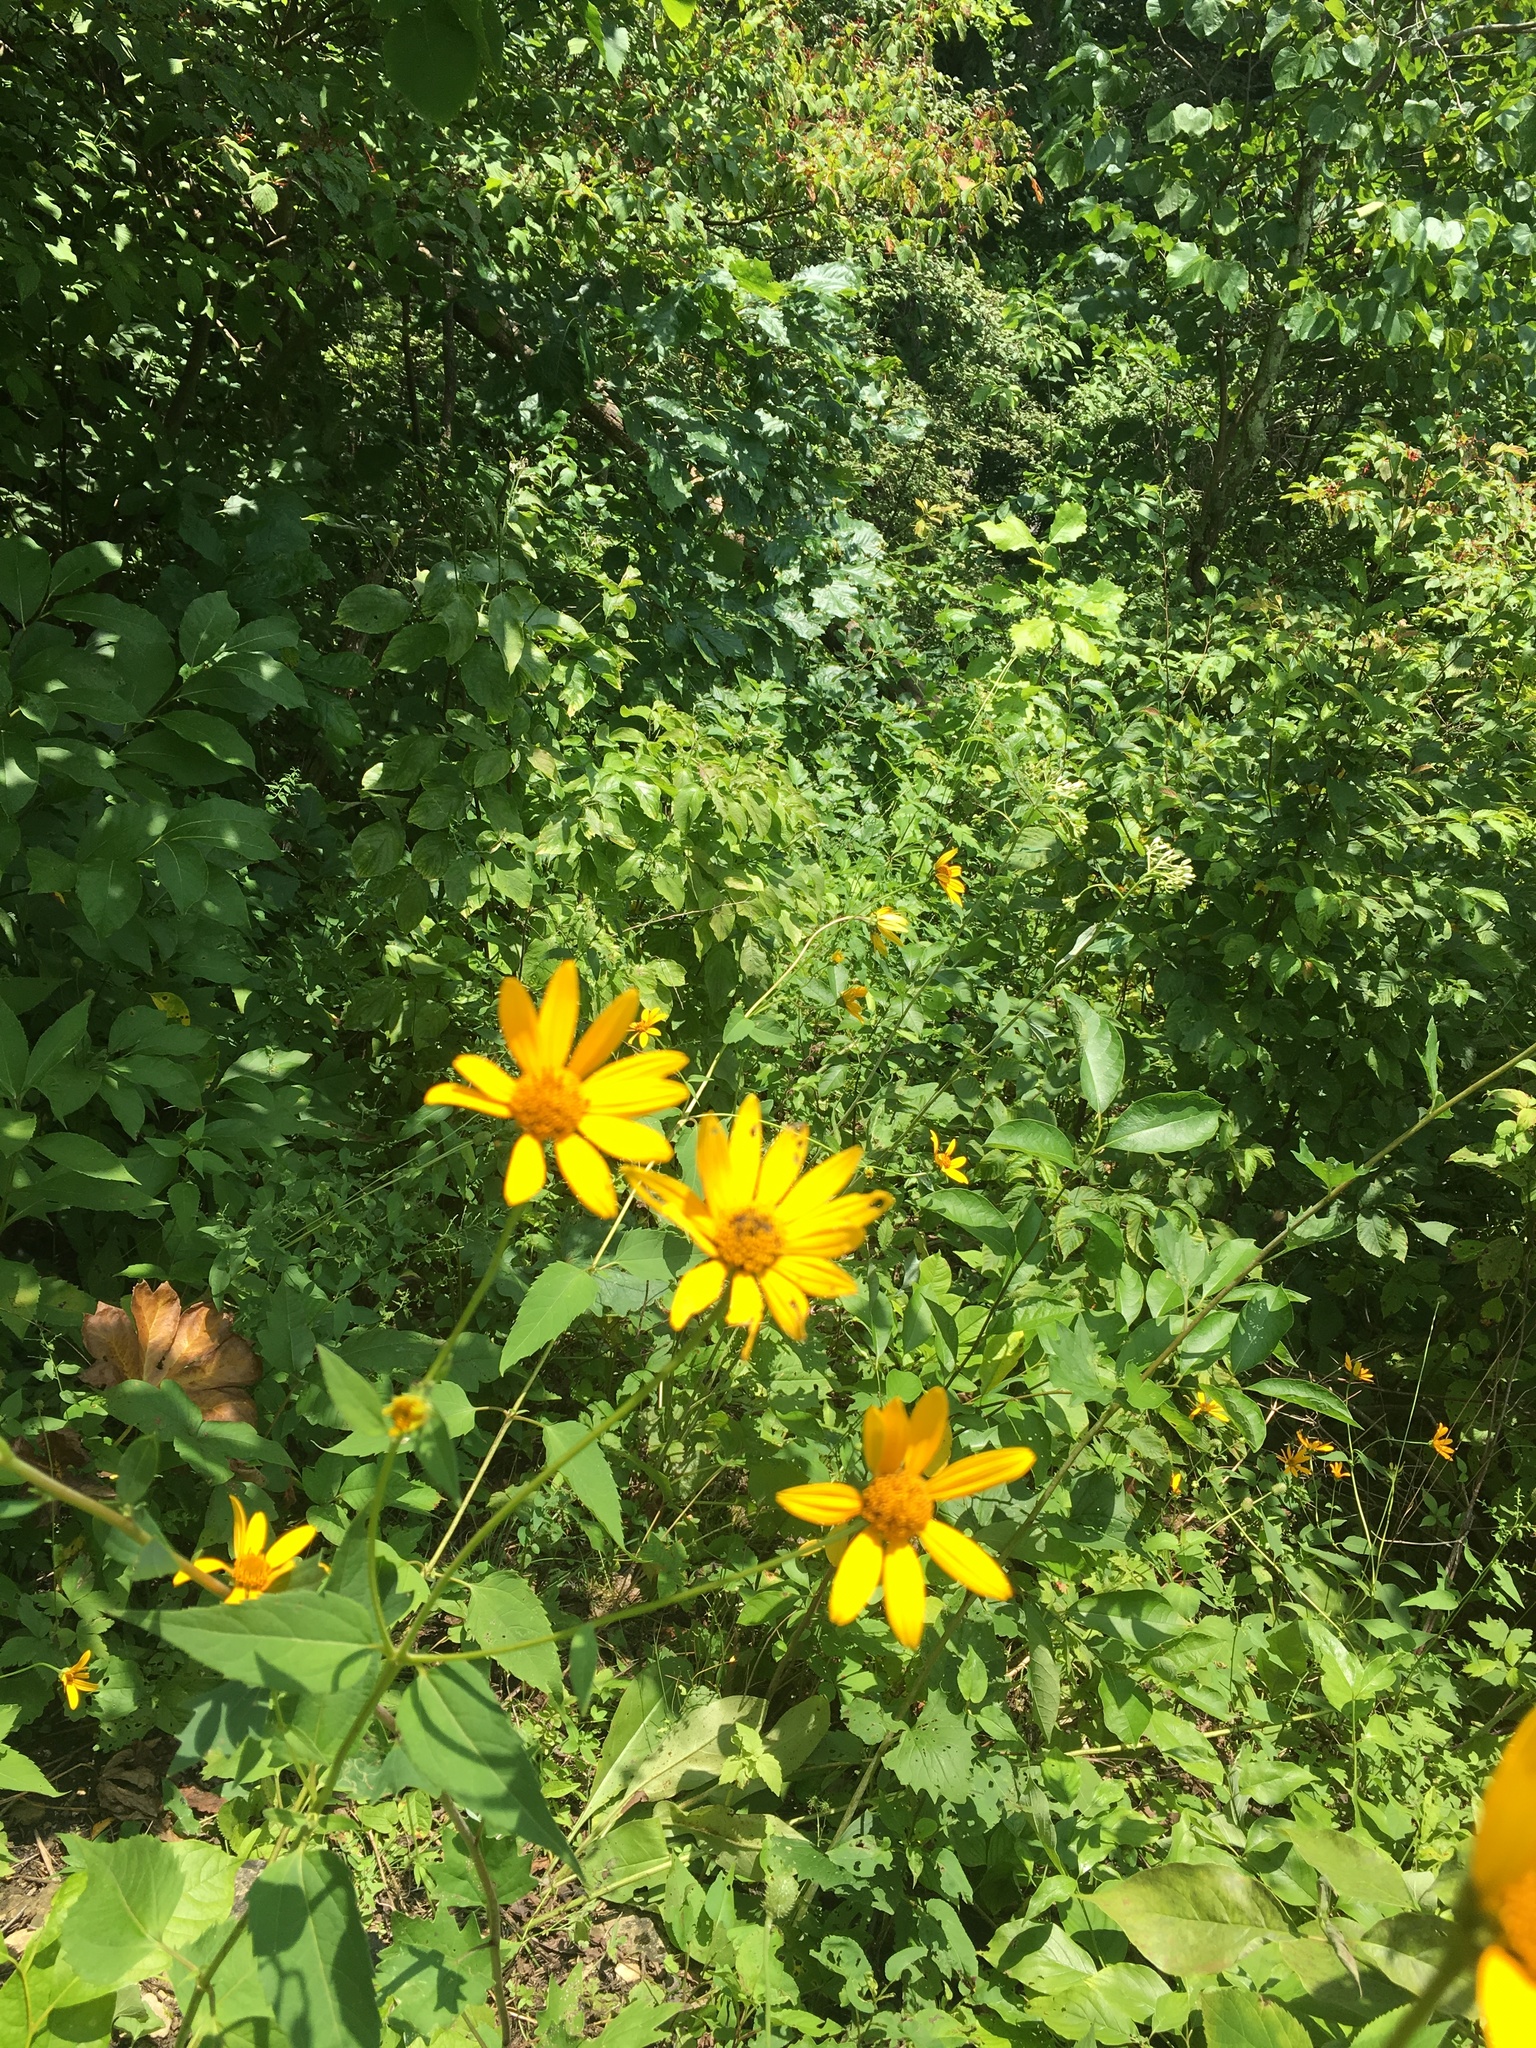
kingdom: Plantae
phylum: Tracheophyta
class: Magnoliopsida
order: Asterales
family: Asteraceae
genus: Heliopsis
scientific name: Heliopsis helianthoides
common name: False sunflower
